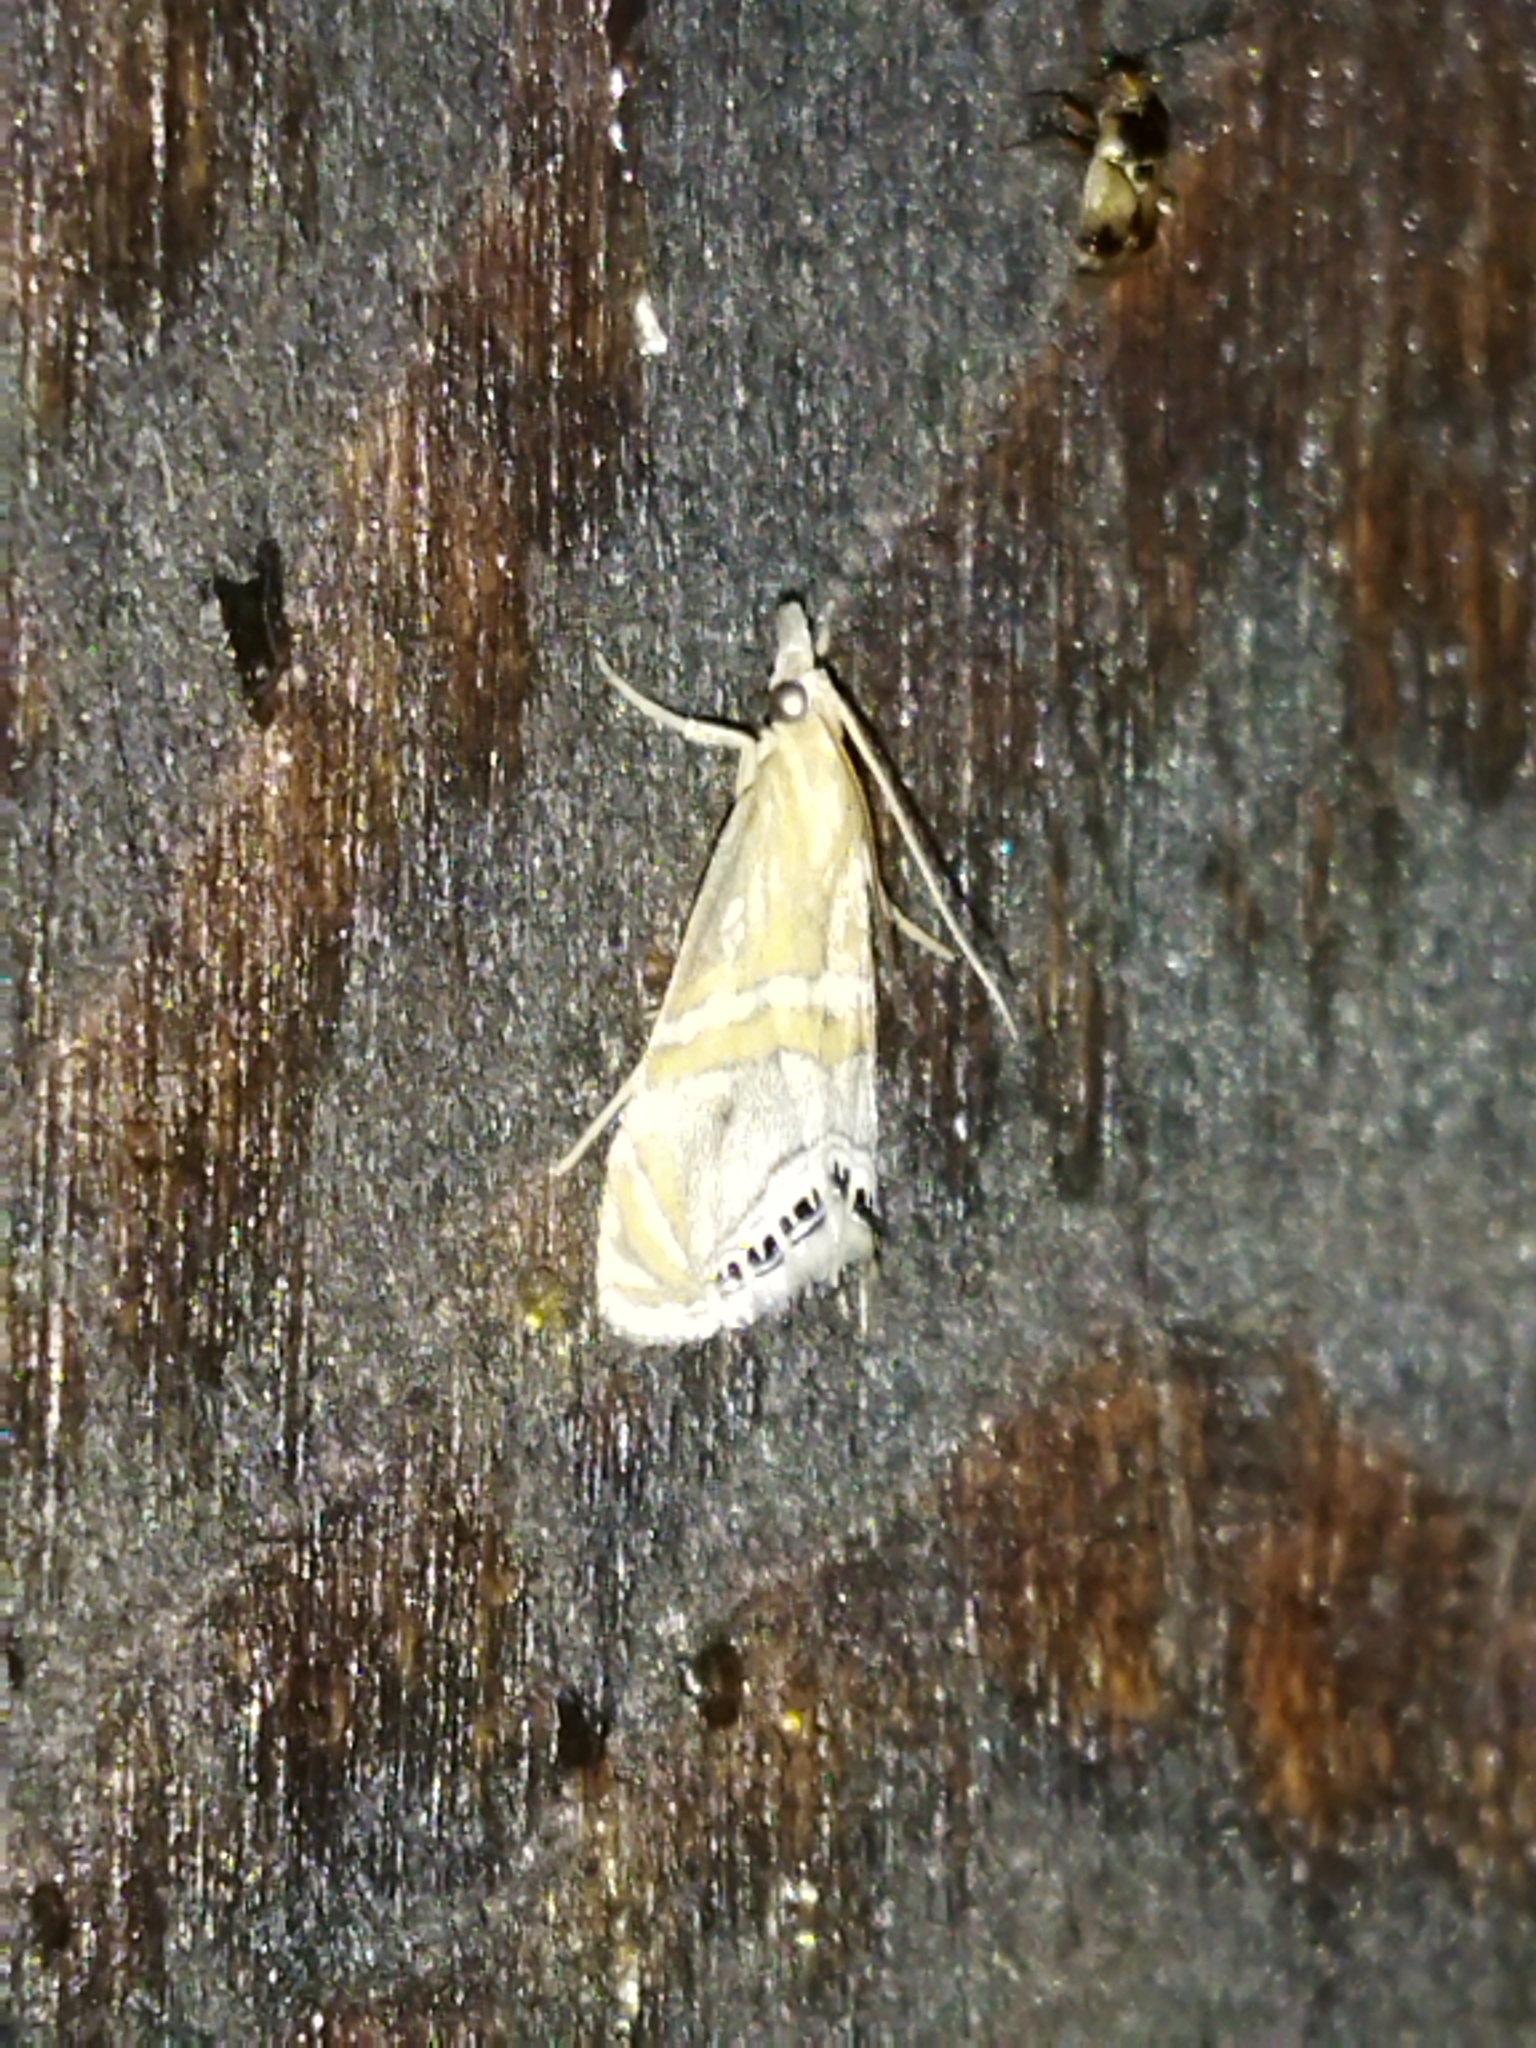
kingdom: Animalia
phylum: Arthropoda
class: Insecta
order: Lepidoptera
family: Crambidae
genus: Euchromius
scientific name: Euchromius bella
